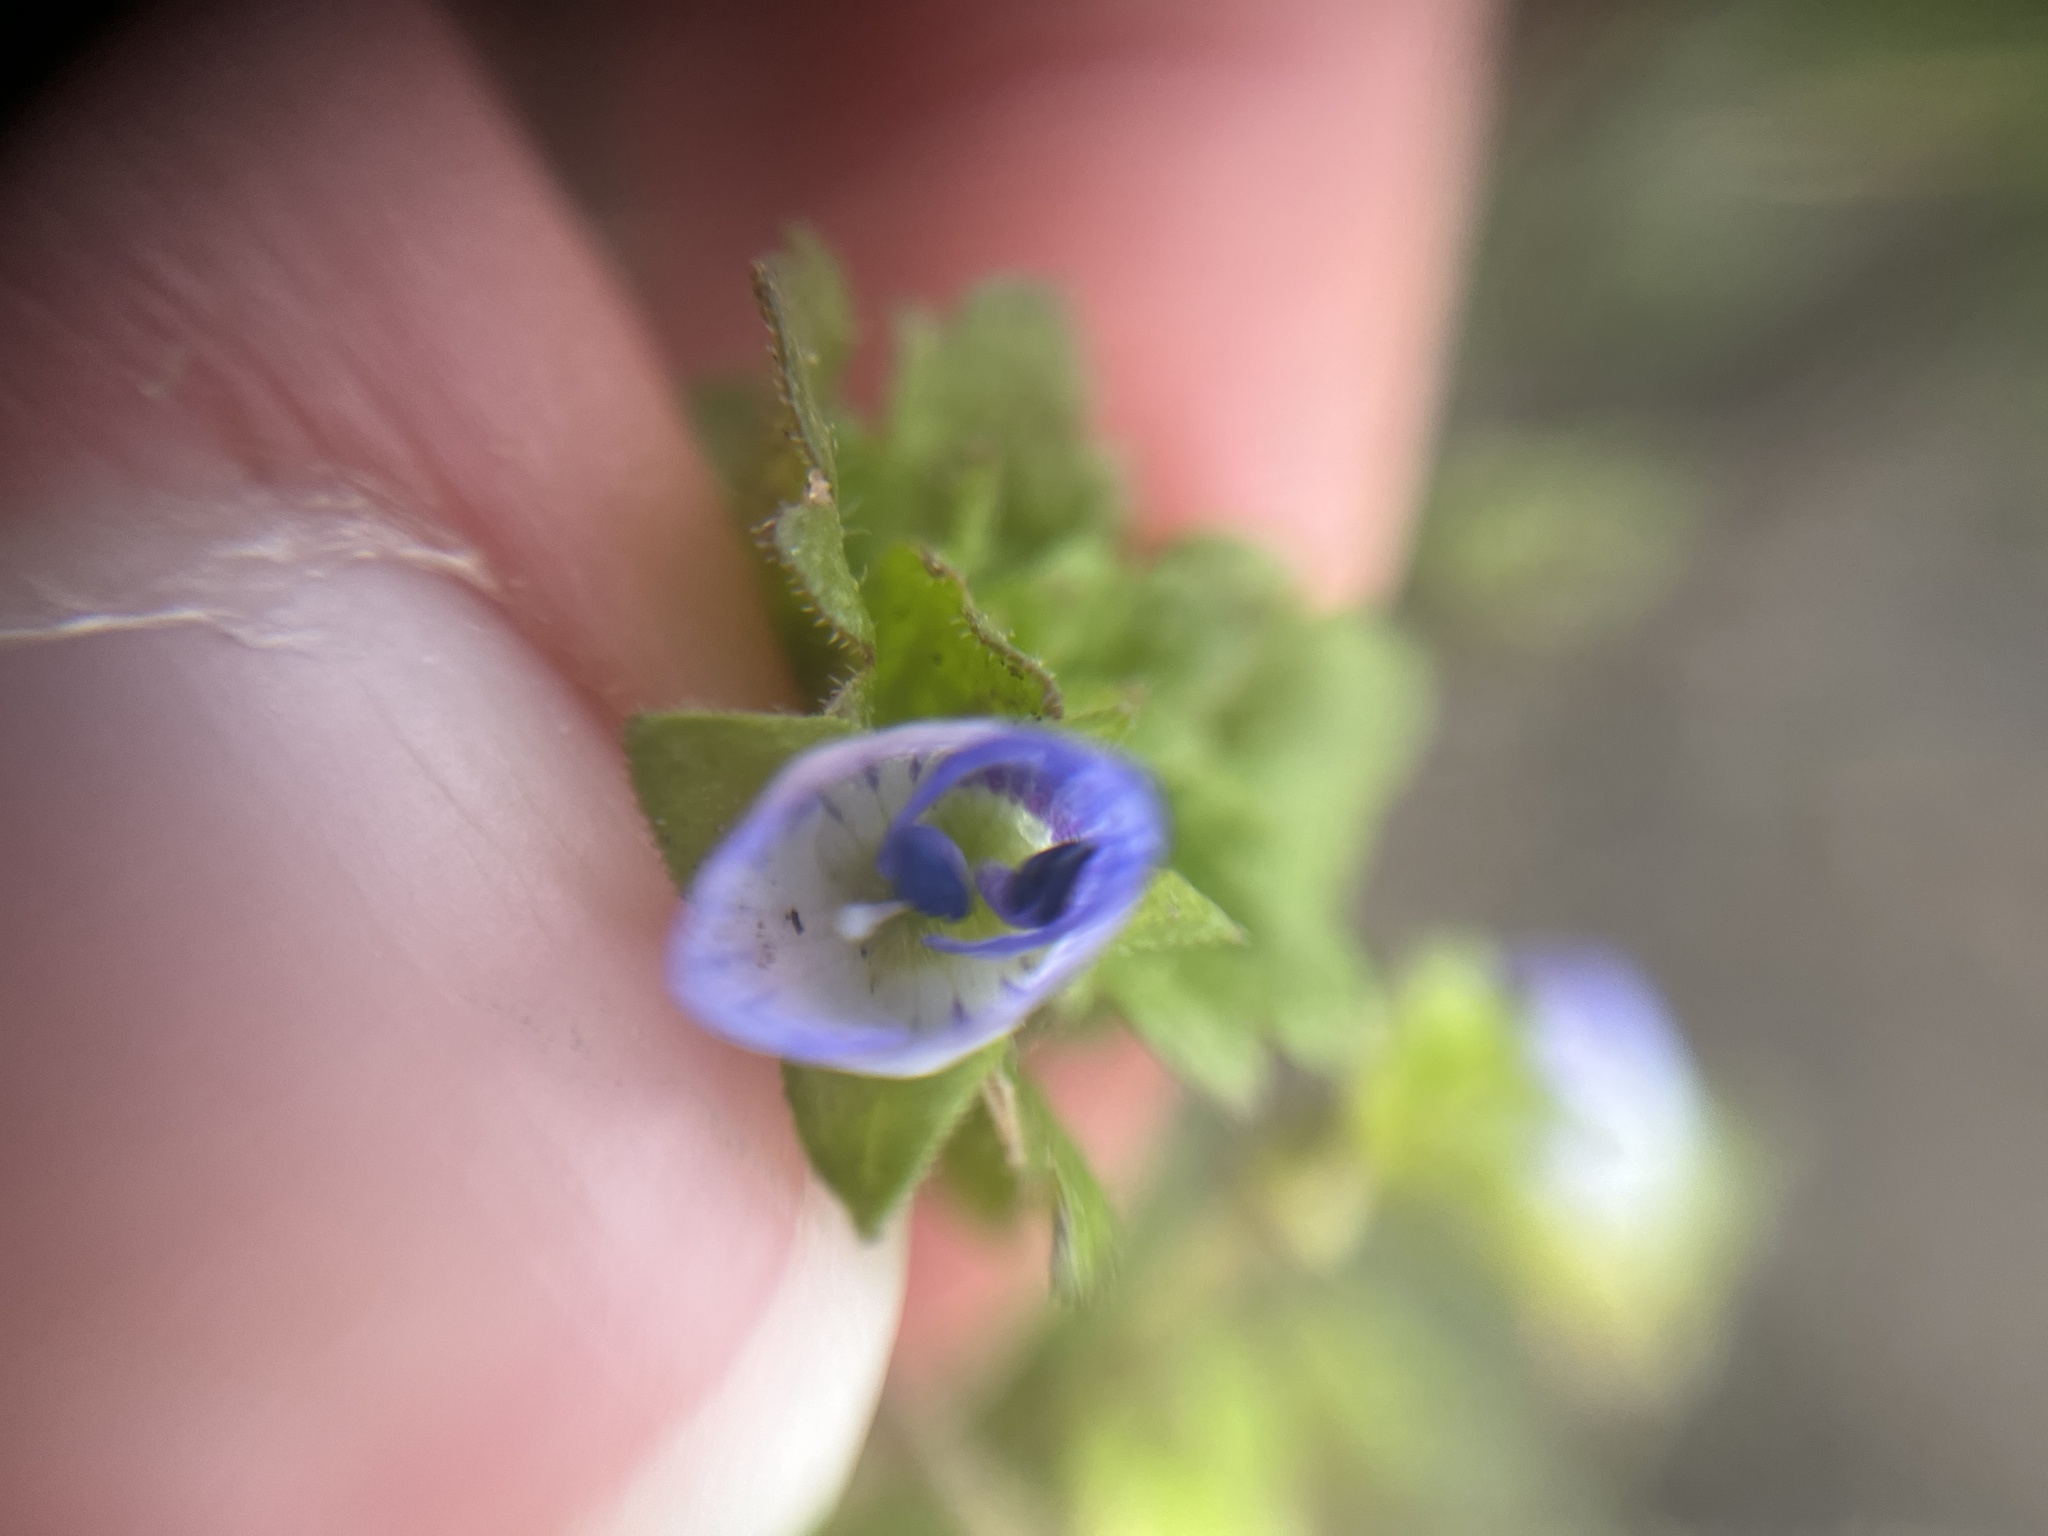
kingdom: Plantae
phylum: Tracheophyta
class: Magnoliopsida
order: Lamiales
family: Plantaginaceae
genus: Veronica
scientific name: Veronica persica
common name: Common field-speedwell
